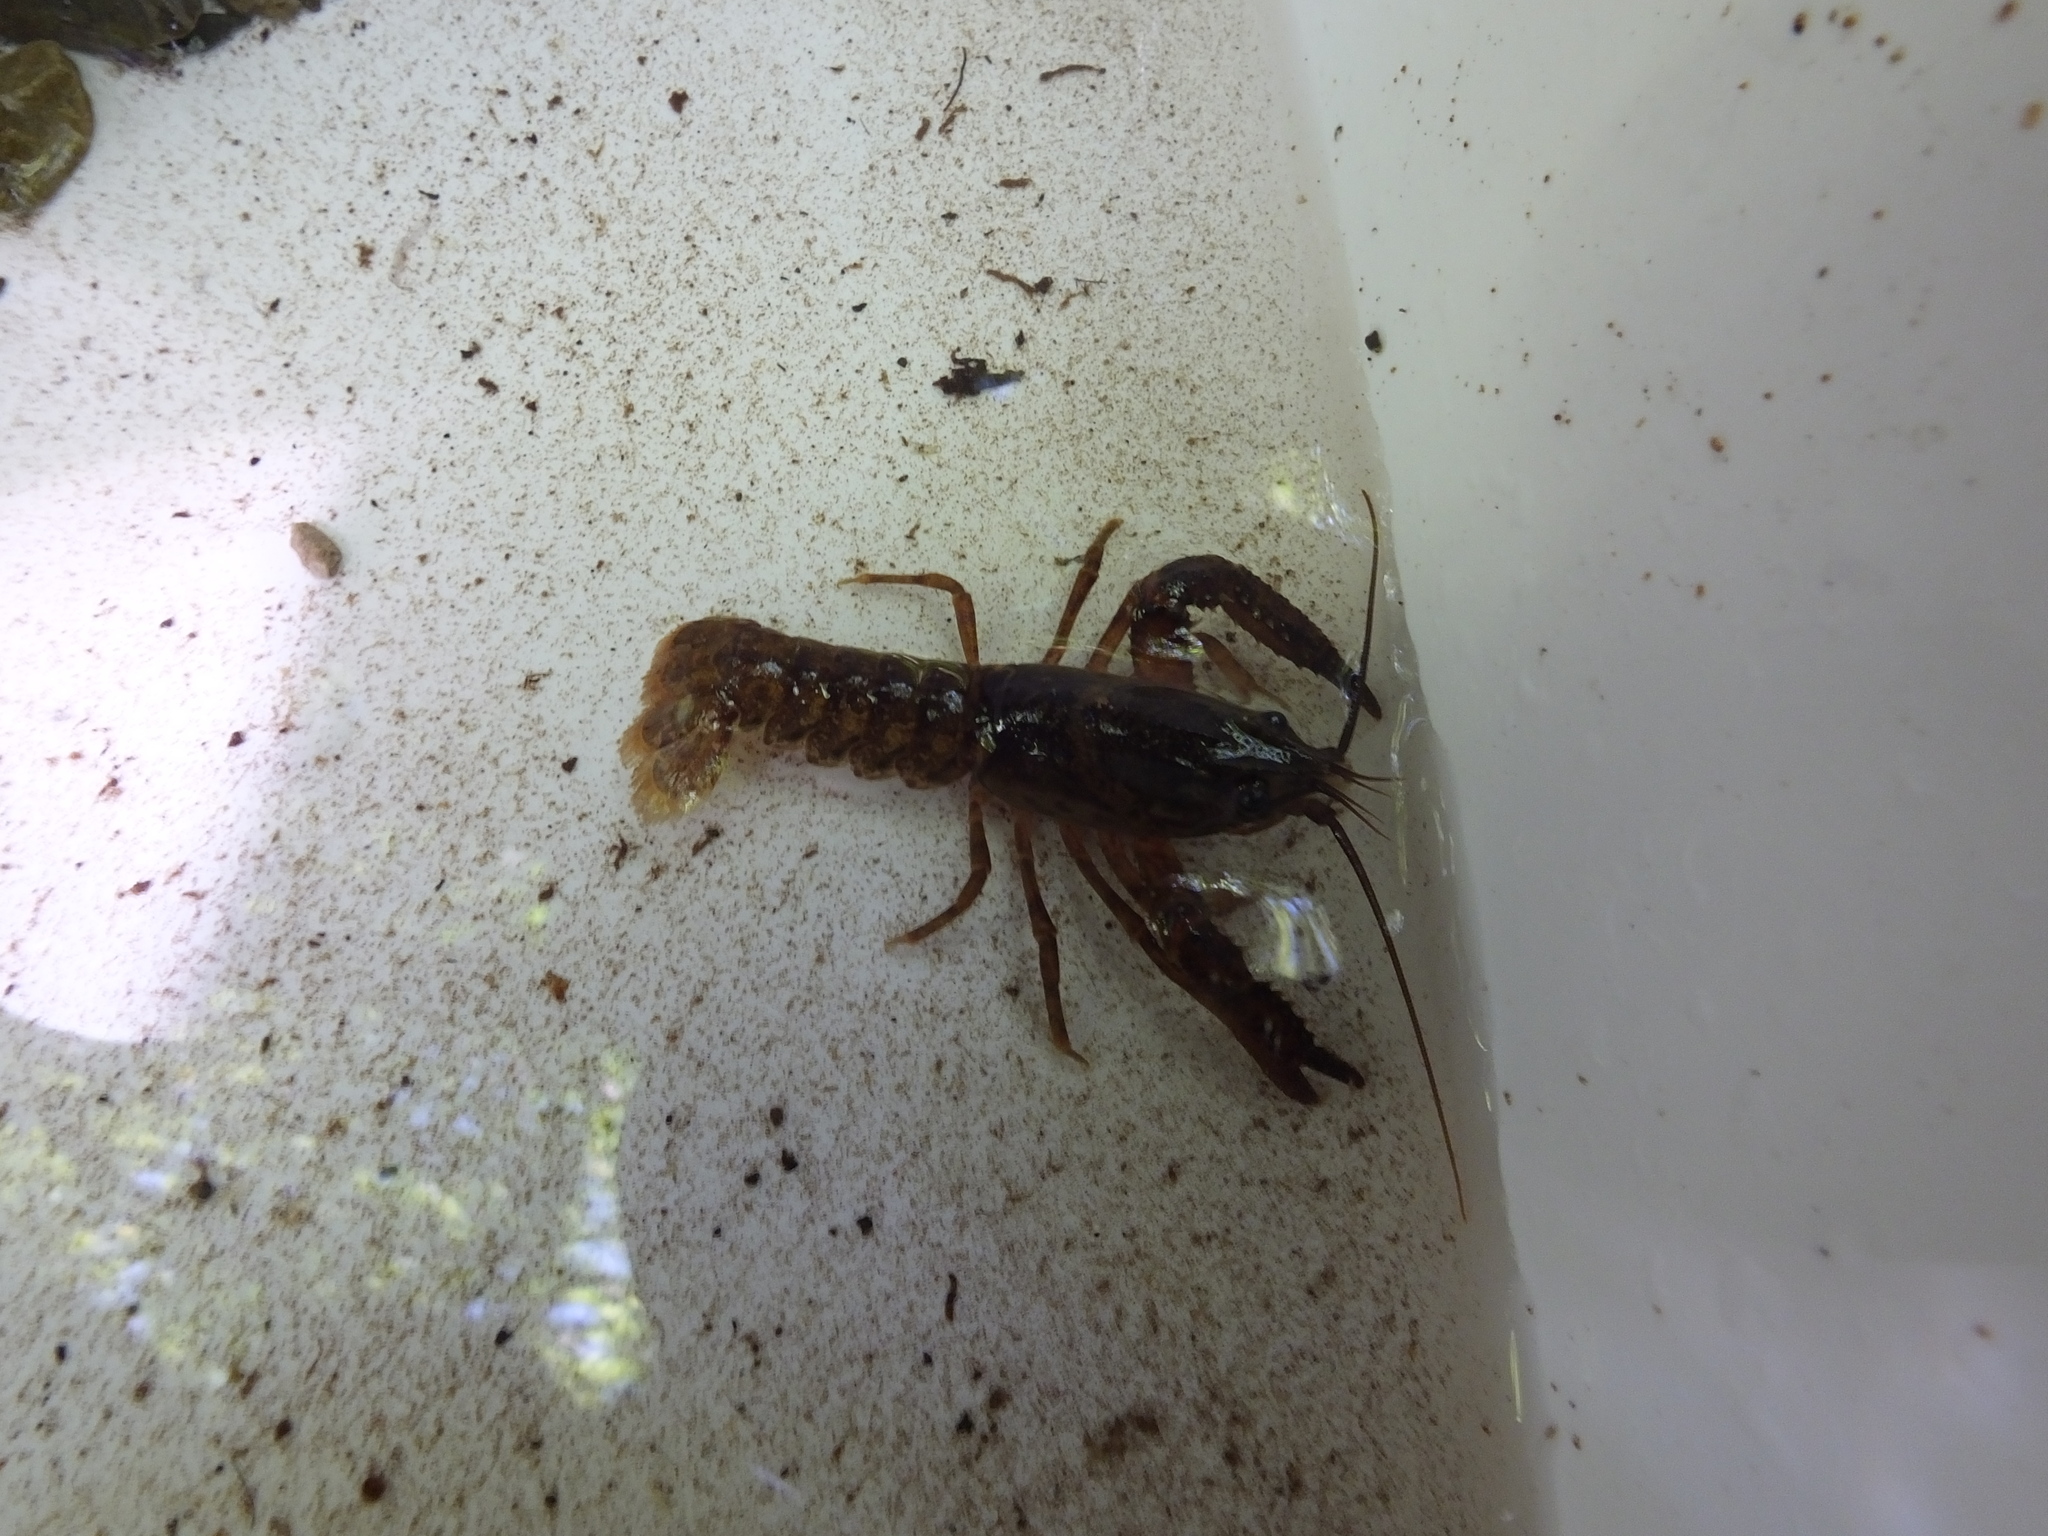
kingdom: Animalia
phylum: Arthropoda
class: Malacostraca
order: Decapoda
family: Parastacidae
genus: Paranephrops
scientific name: Paranephrops planifrons
